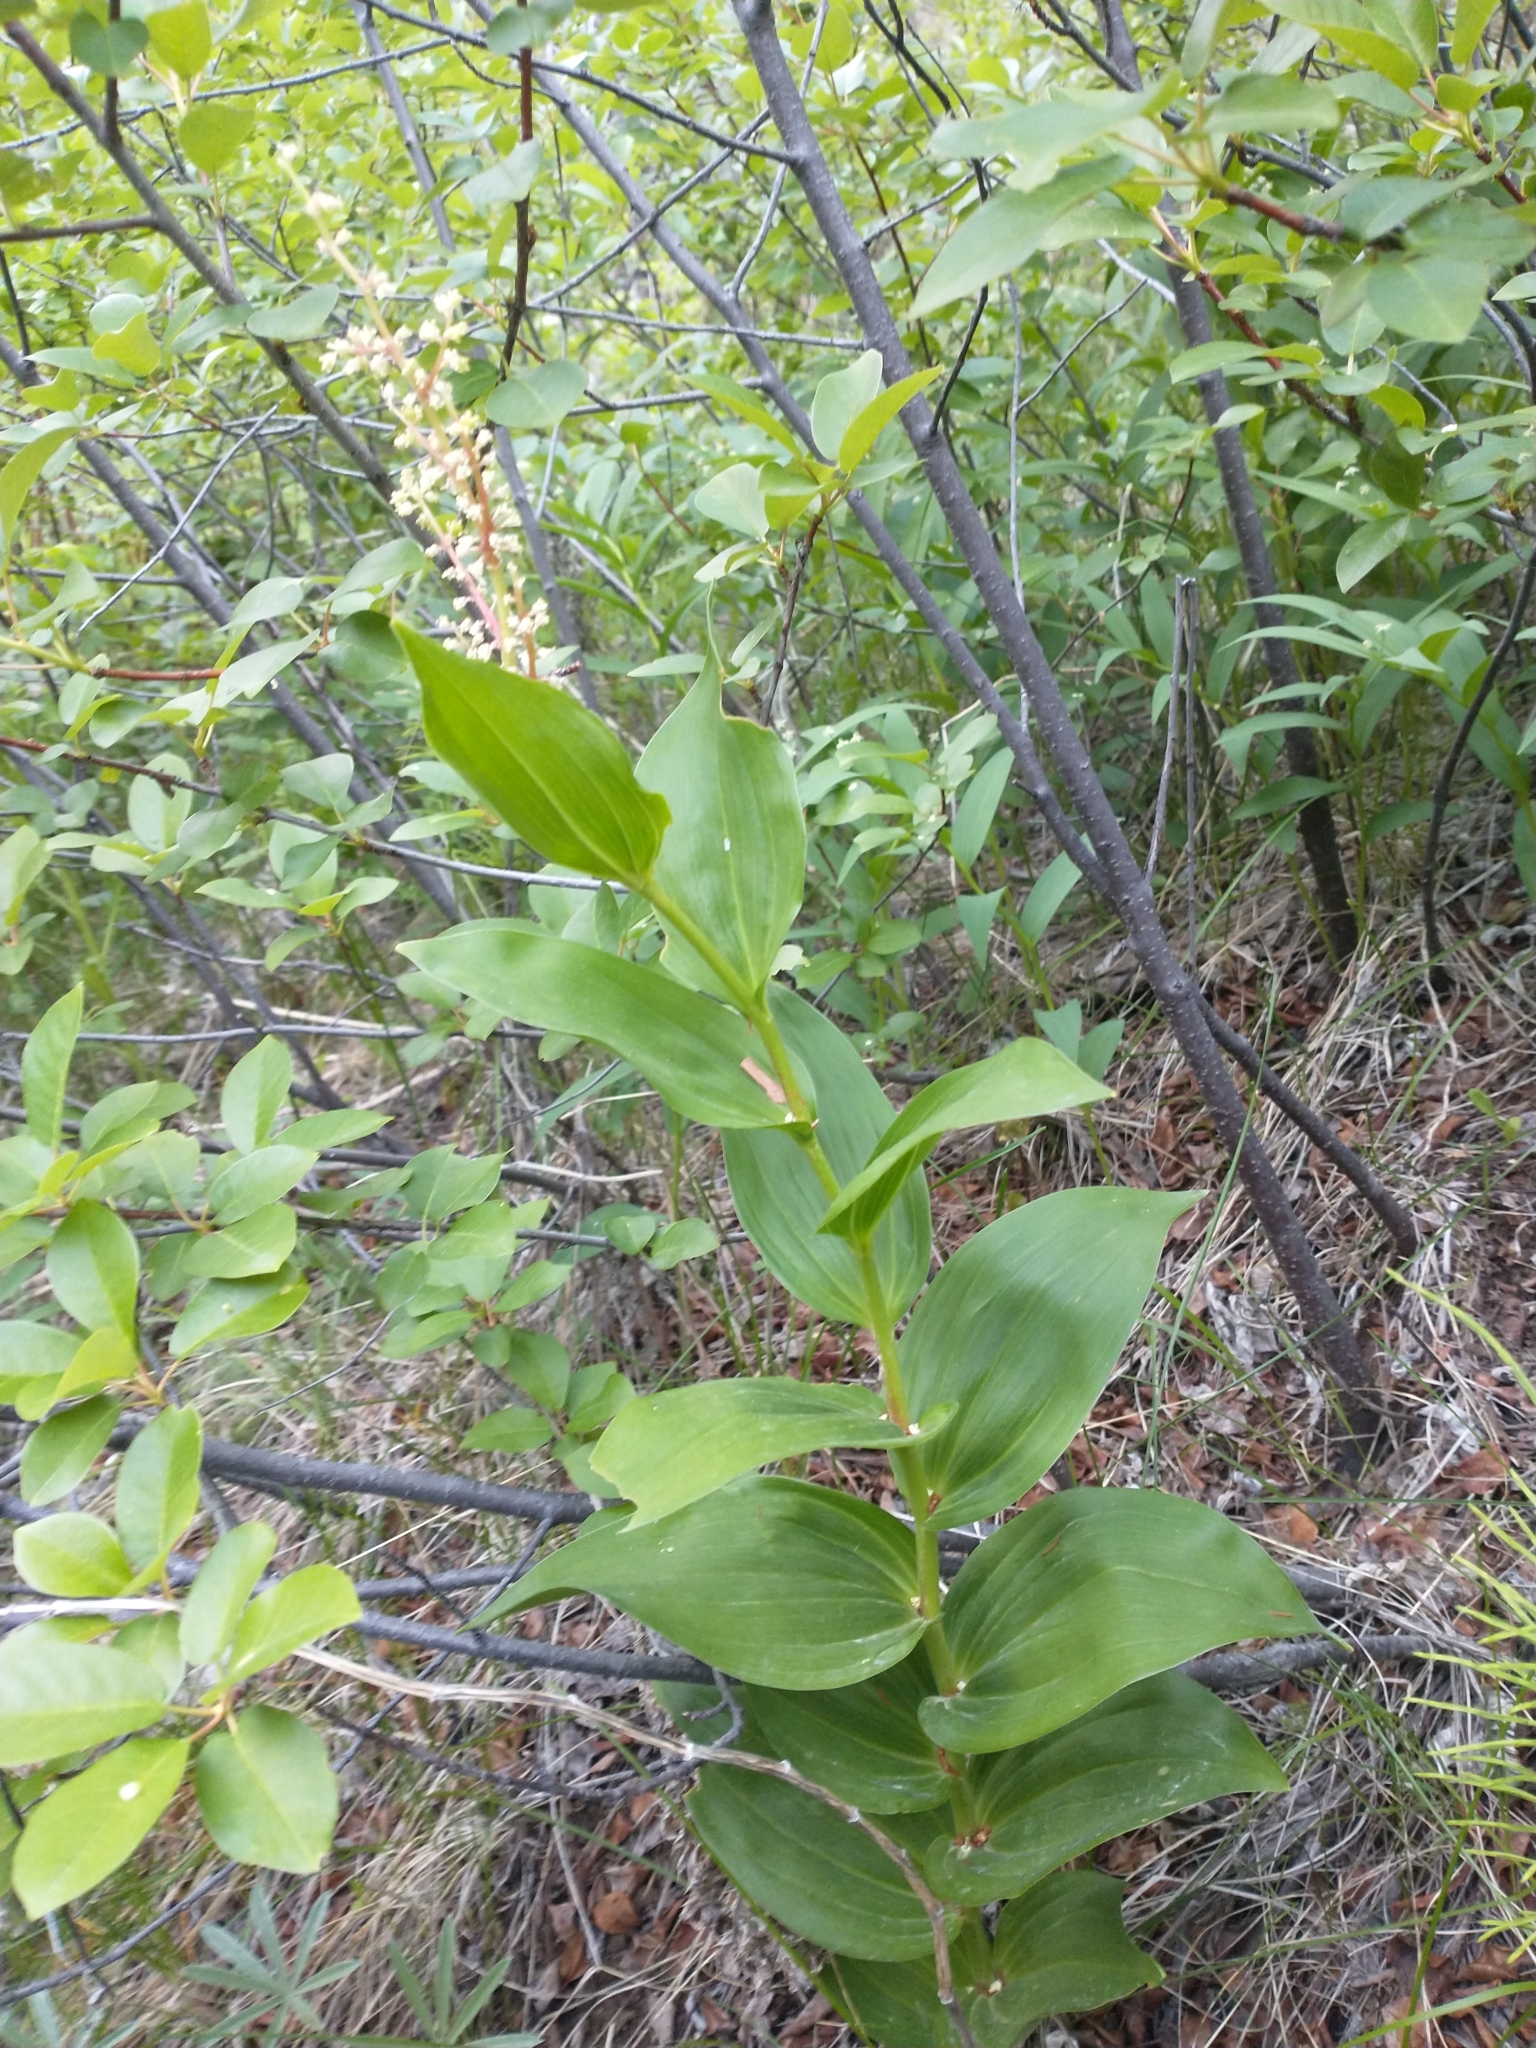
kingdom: Plantae
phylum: Tracheophyta
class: Liliopsida
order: Asparagales
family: Asparagaceae
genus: Maianthemum
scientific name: Maianthemum racemosum
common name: False spikenard
